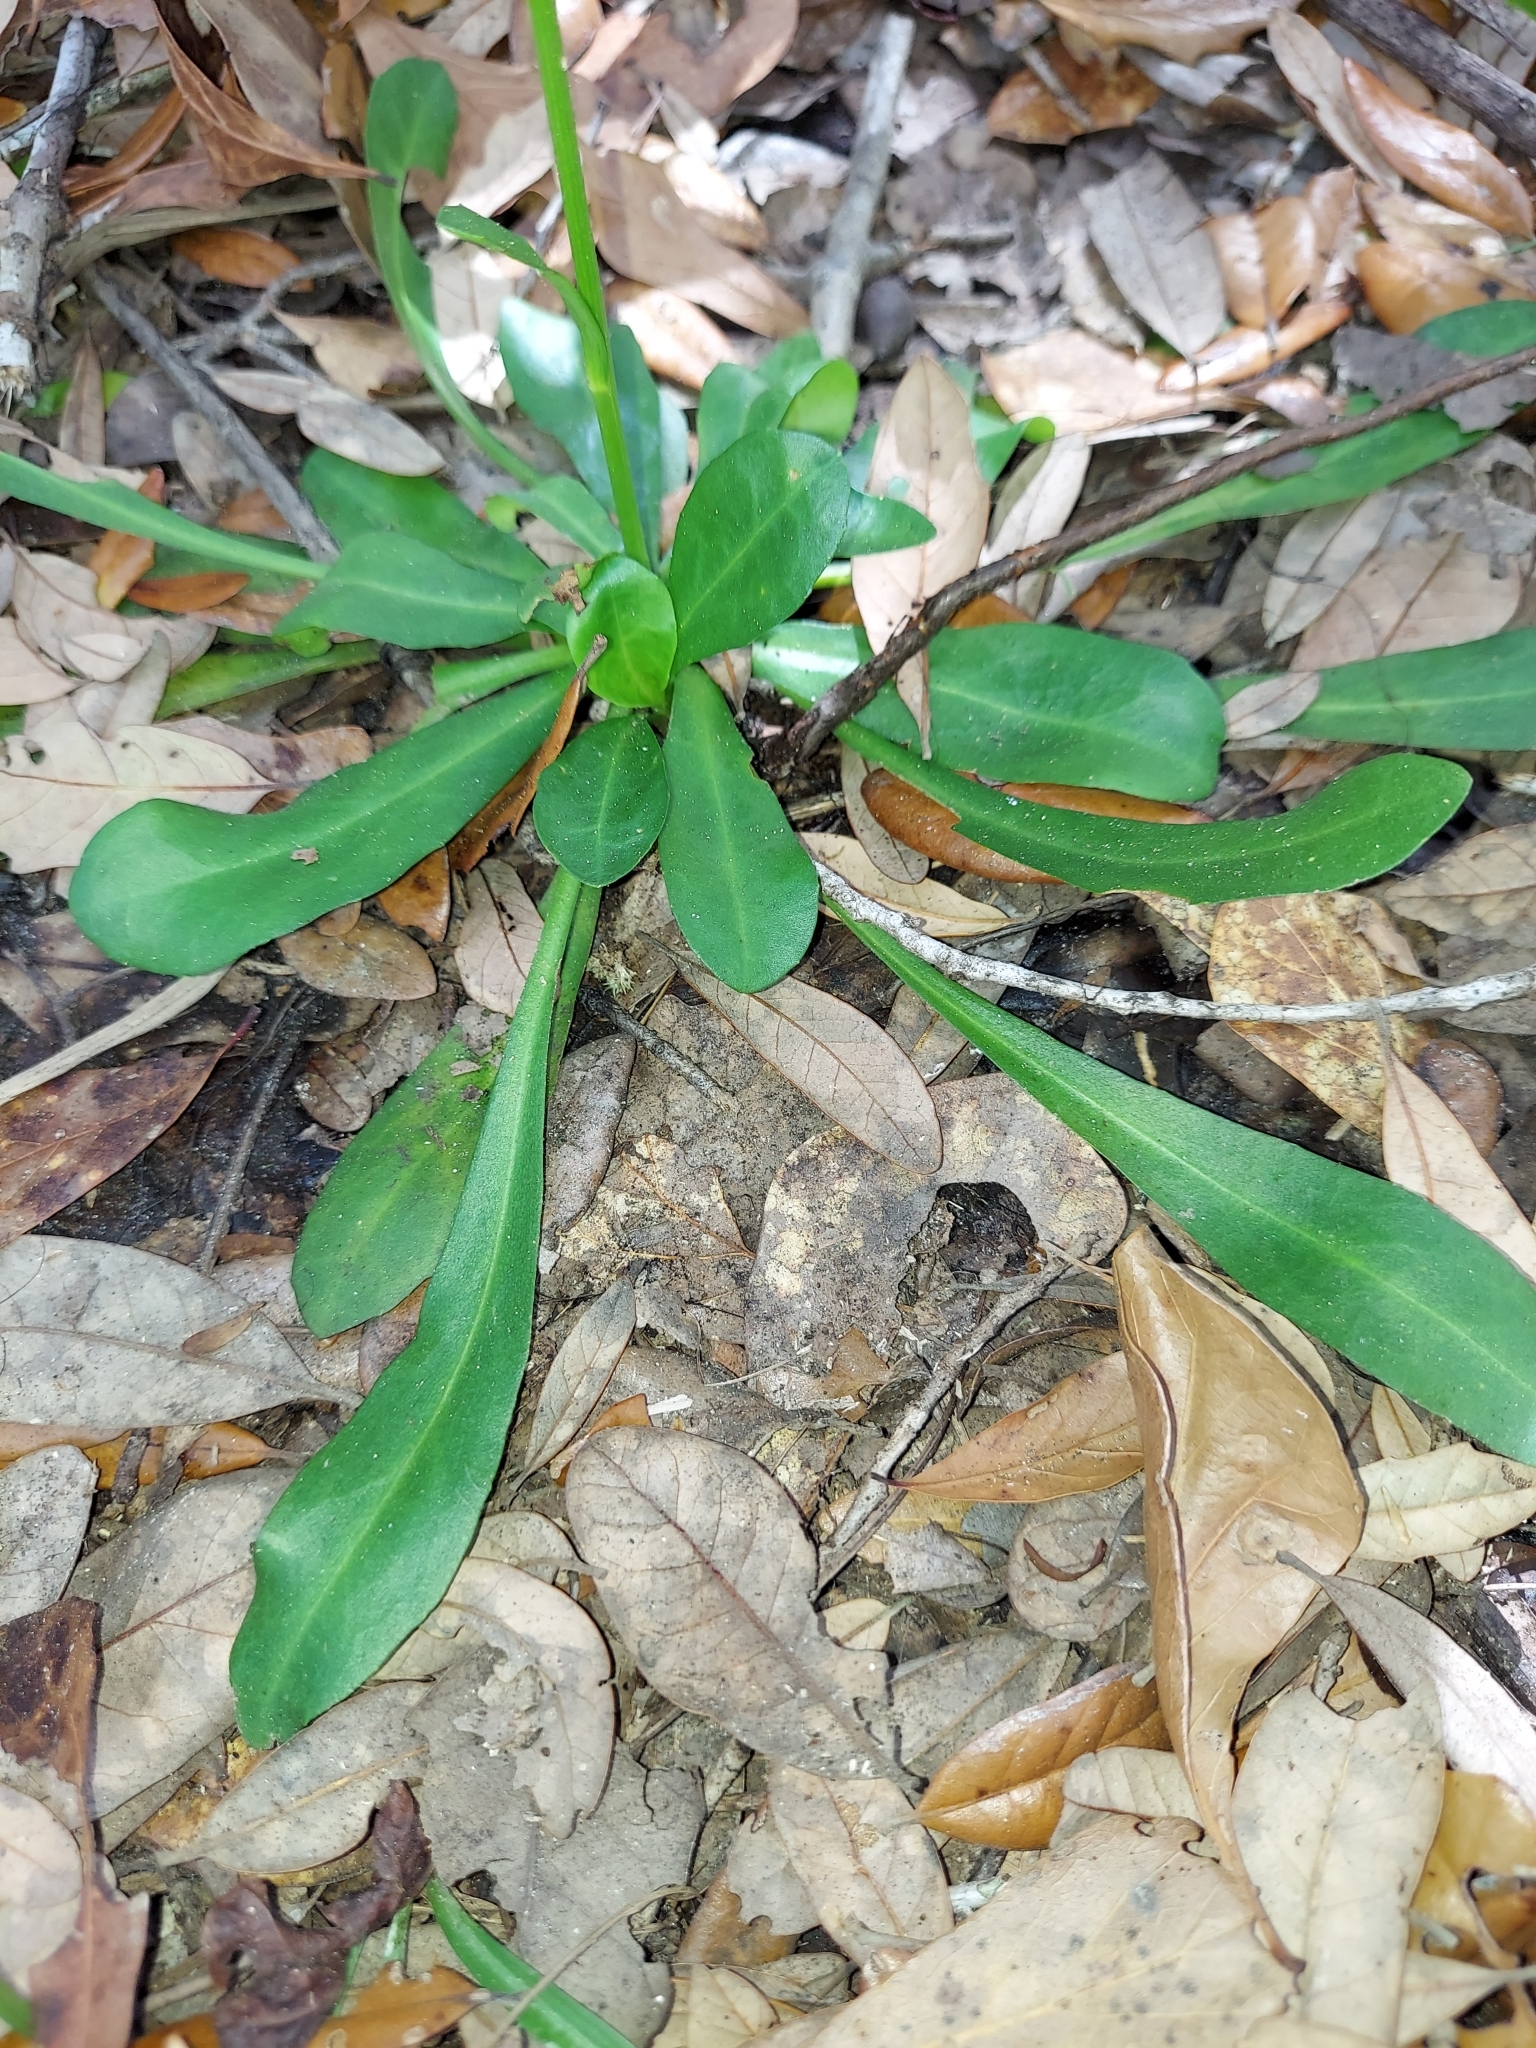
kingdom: Plantae
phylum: Tracheophyta
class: Magnoliopsida
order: Asterales
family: Asteraceae
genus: Erigeron
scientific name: Erigeron vernus
